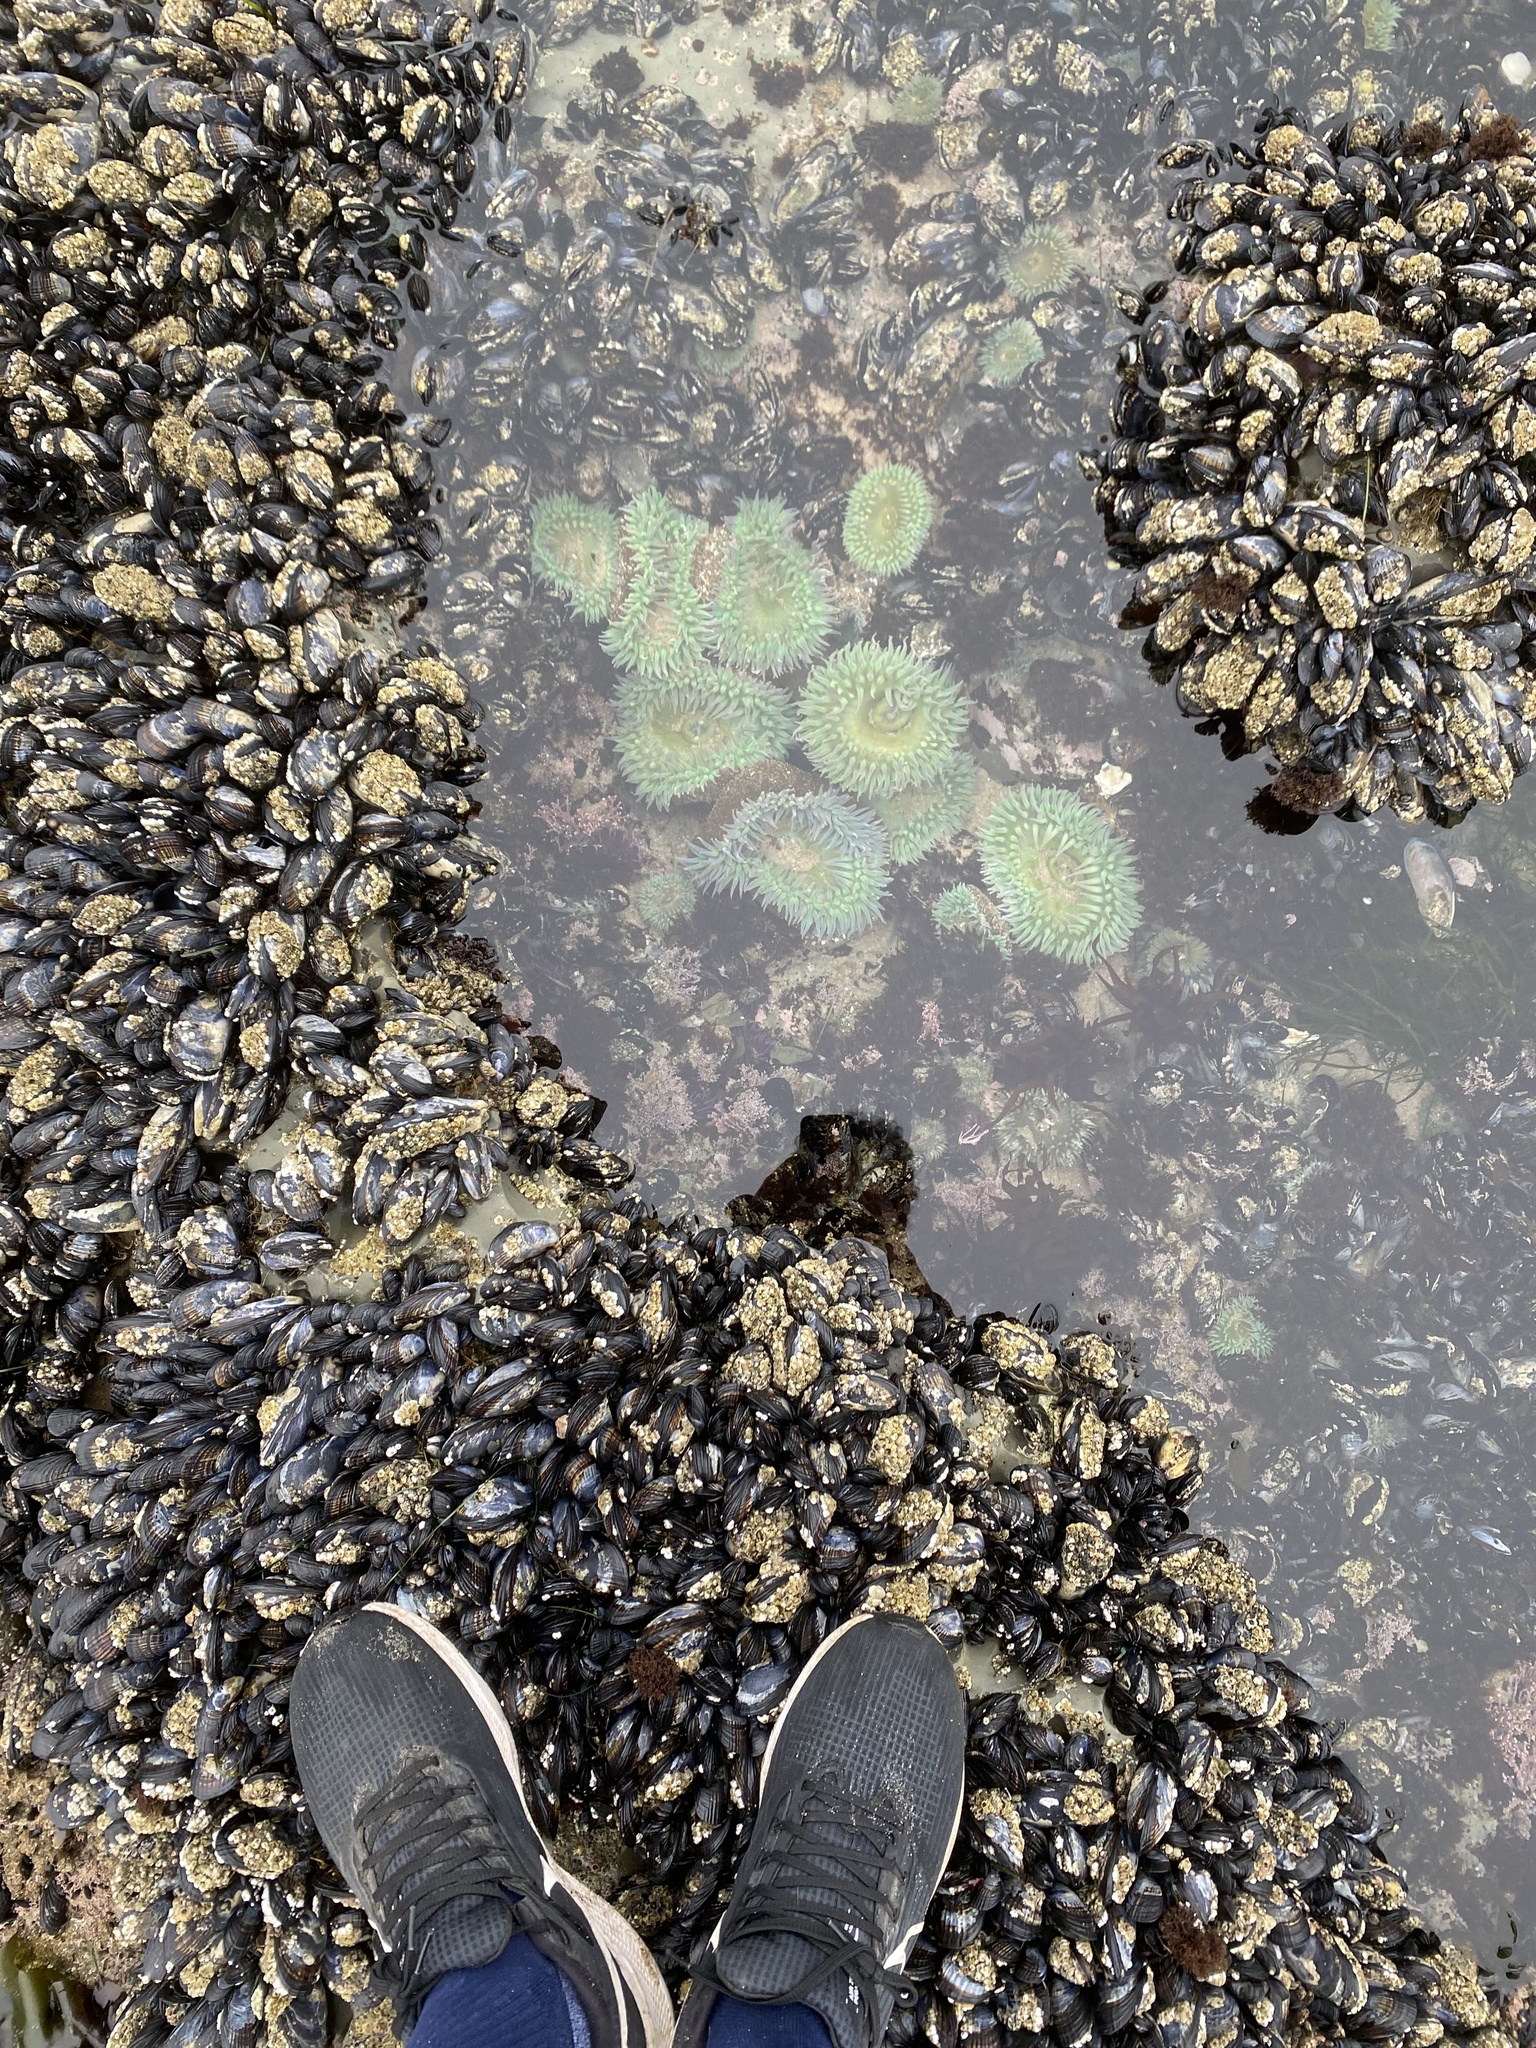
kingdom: Animalia
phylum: Cnidaria
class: Anthozoa
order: Actiniaria
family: Actiniidae
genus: Anthopleura
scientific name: Anthopleura xanthogrammica
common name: Giant green anemone
